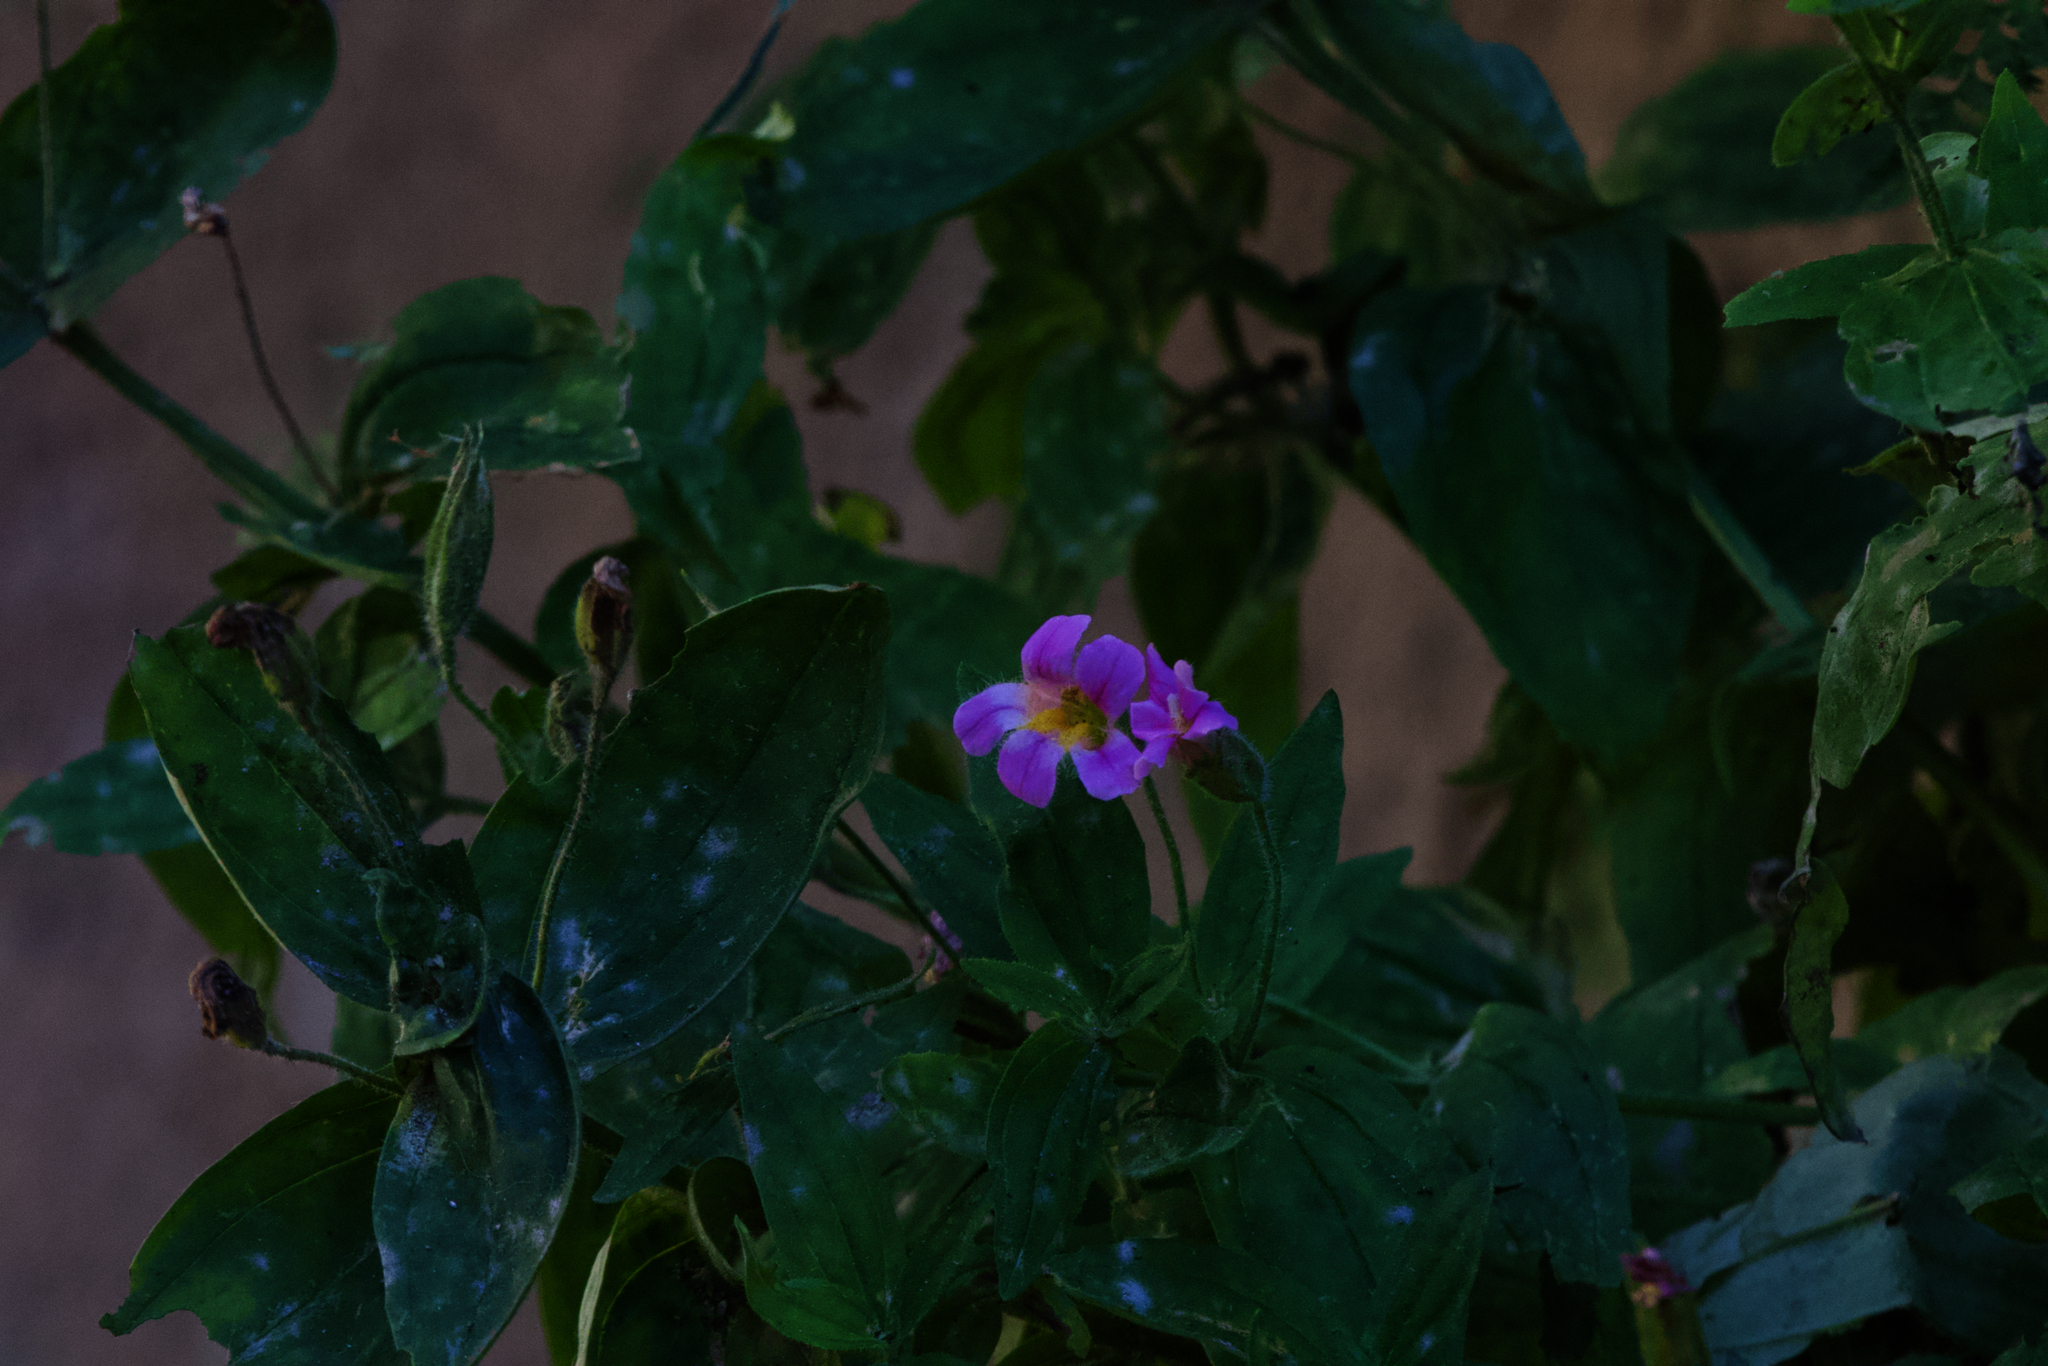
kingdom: Plantae
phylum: Tracheophyta
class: Magnoliopsida
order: Lamiales
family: Phrymaceae
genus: Erythranthe
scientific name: Erythranthe erubescens
